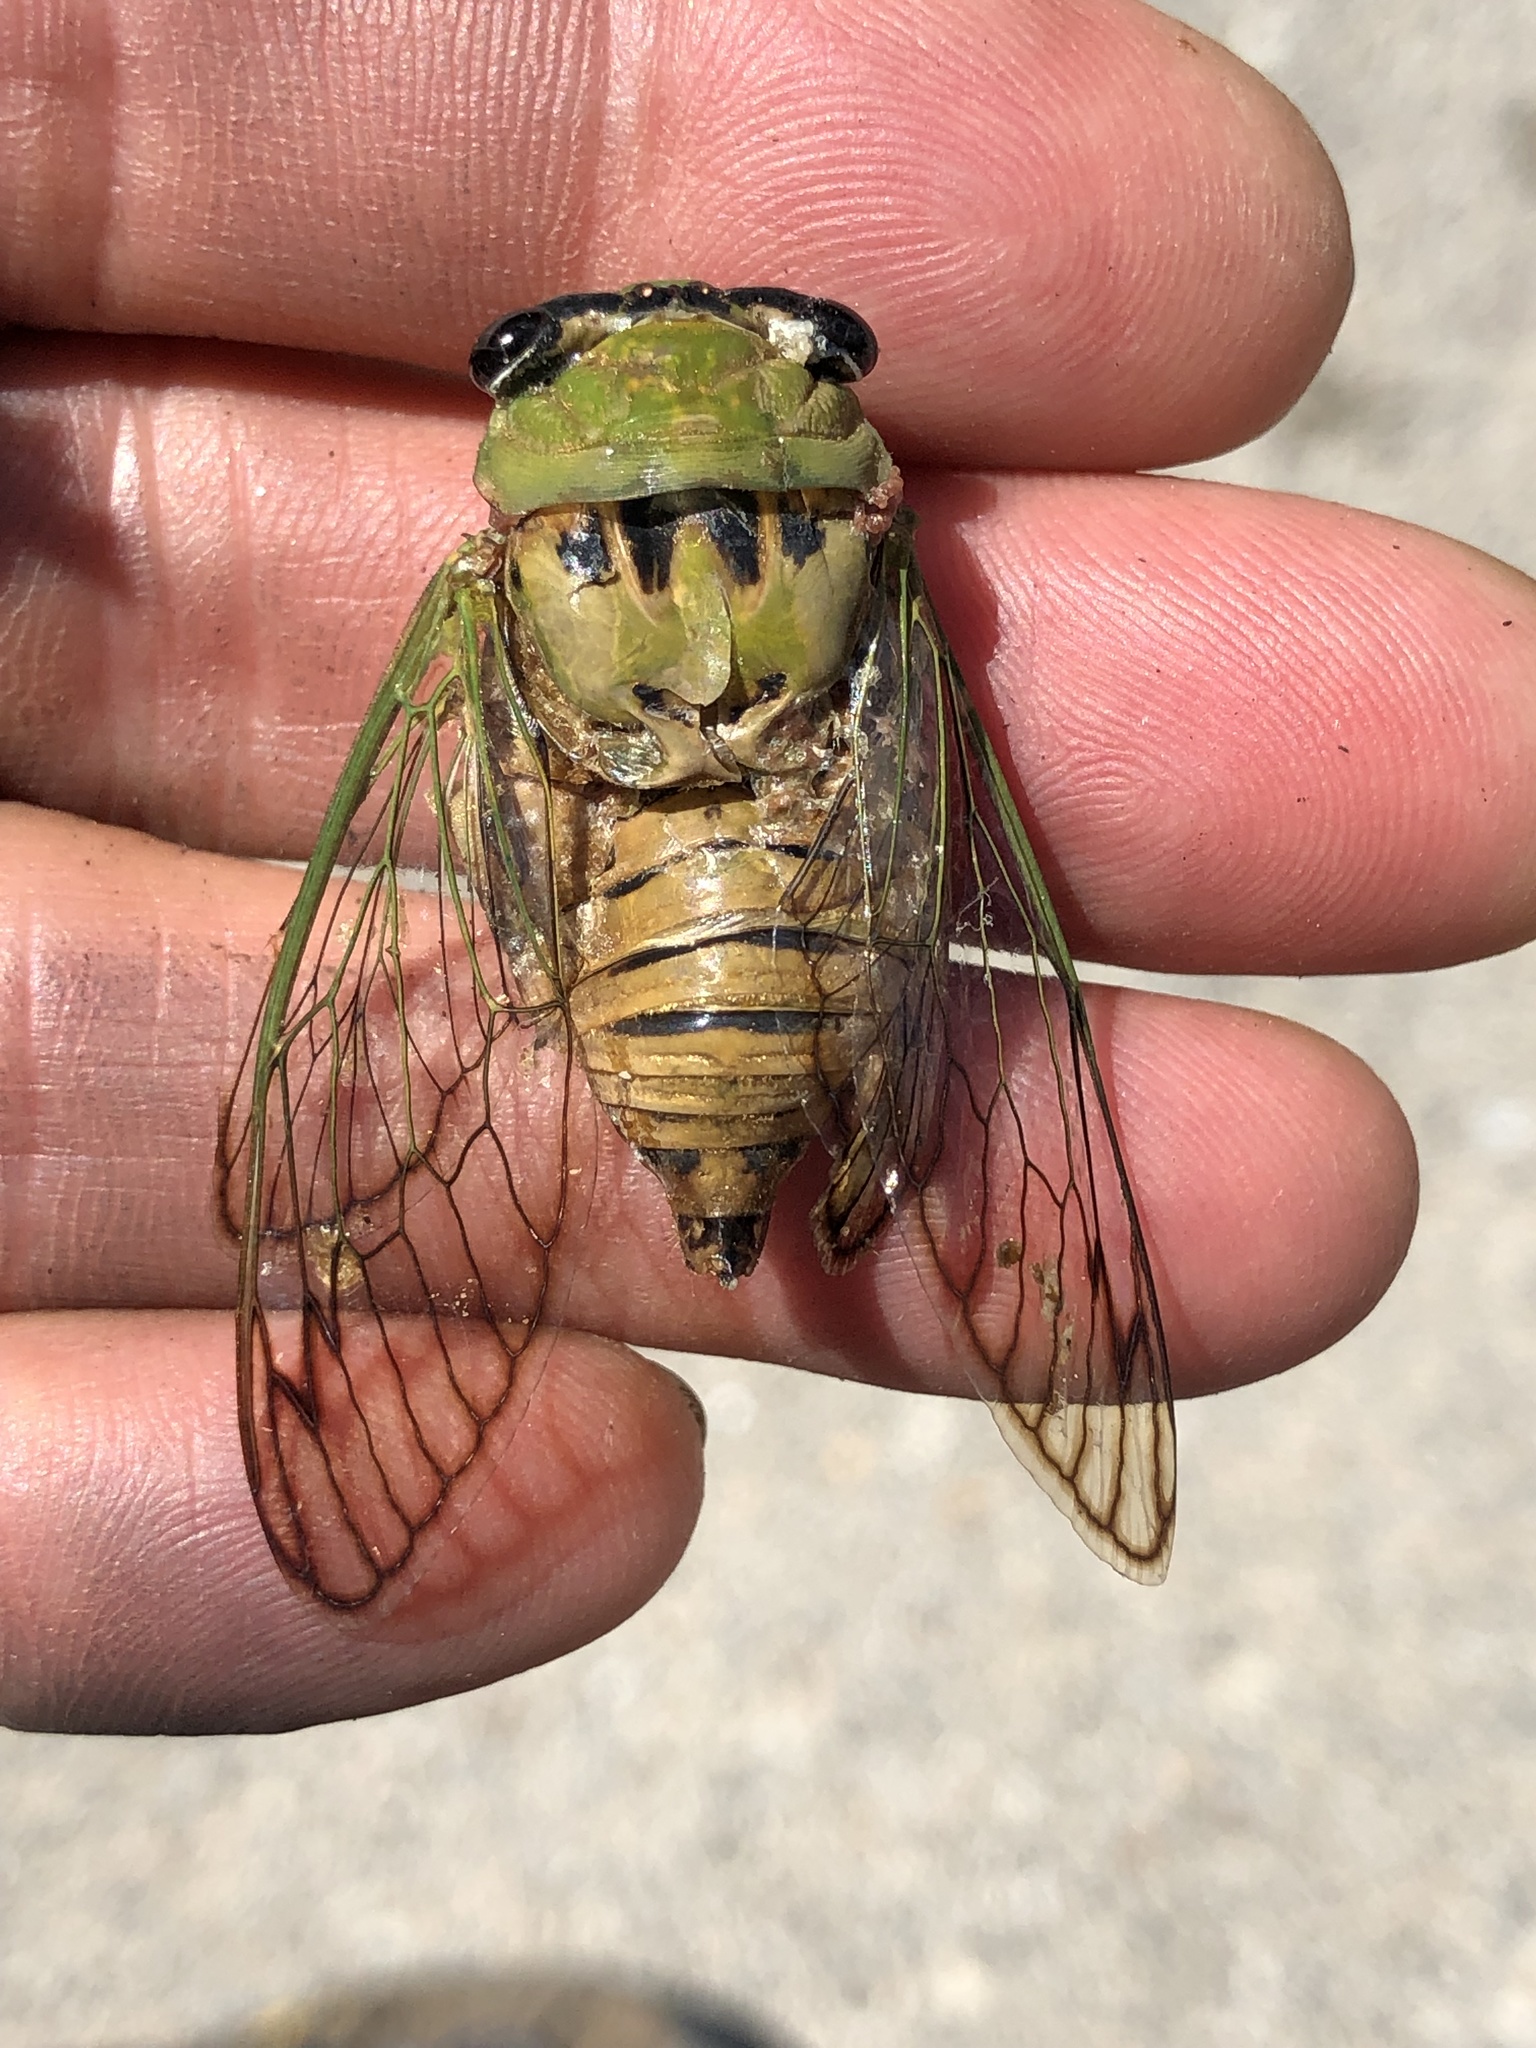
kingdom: Animalia
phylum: Arthropoda
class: Insecta
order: Hemiptera
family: Cicadidae
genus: Neotibicen
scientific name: Neotibicen superbus
